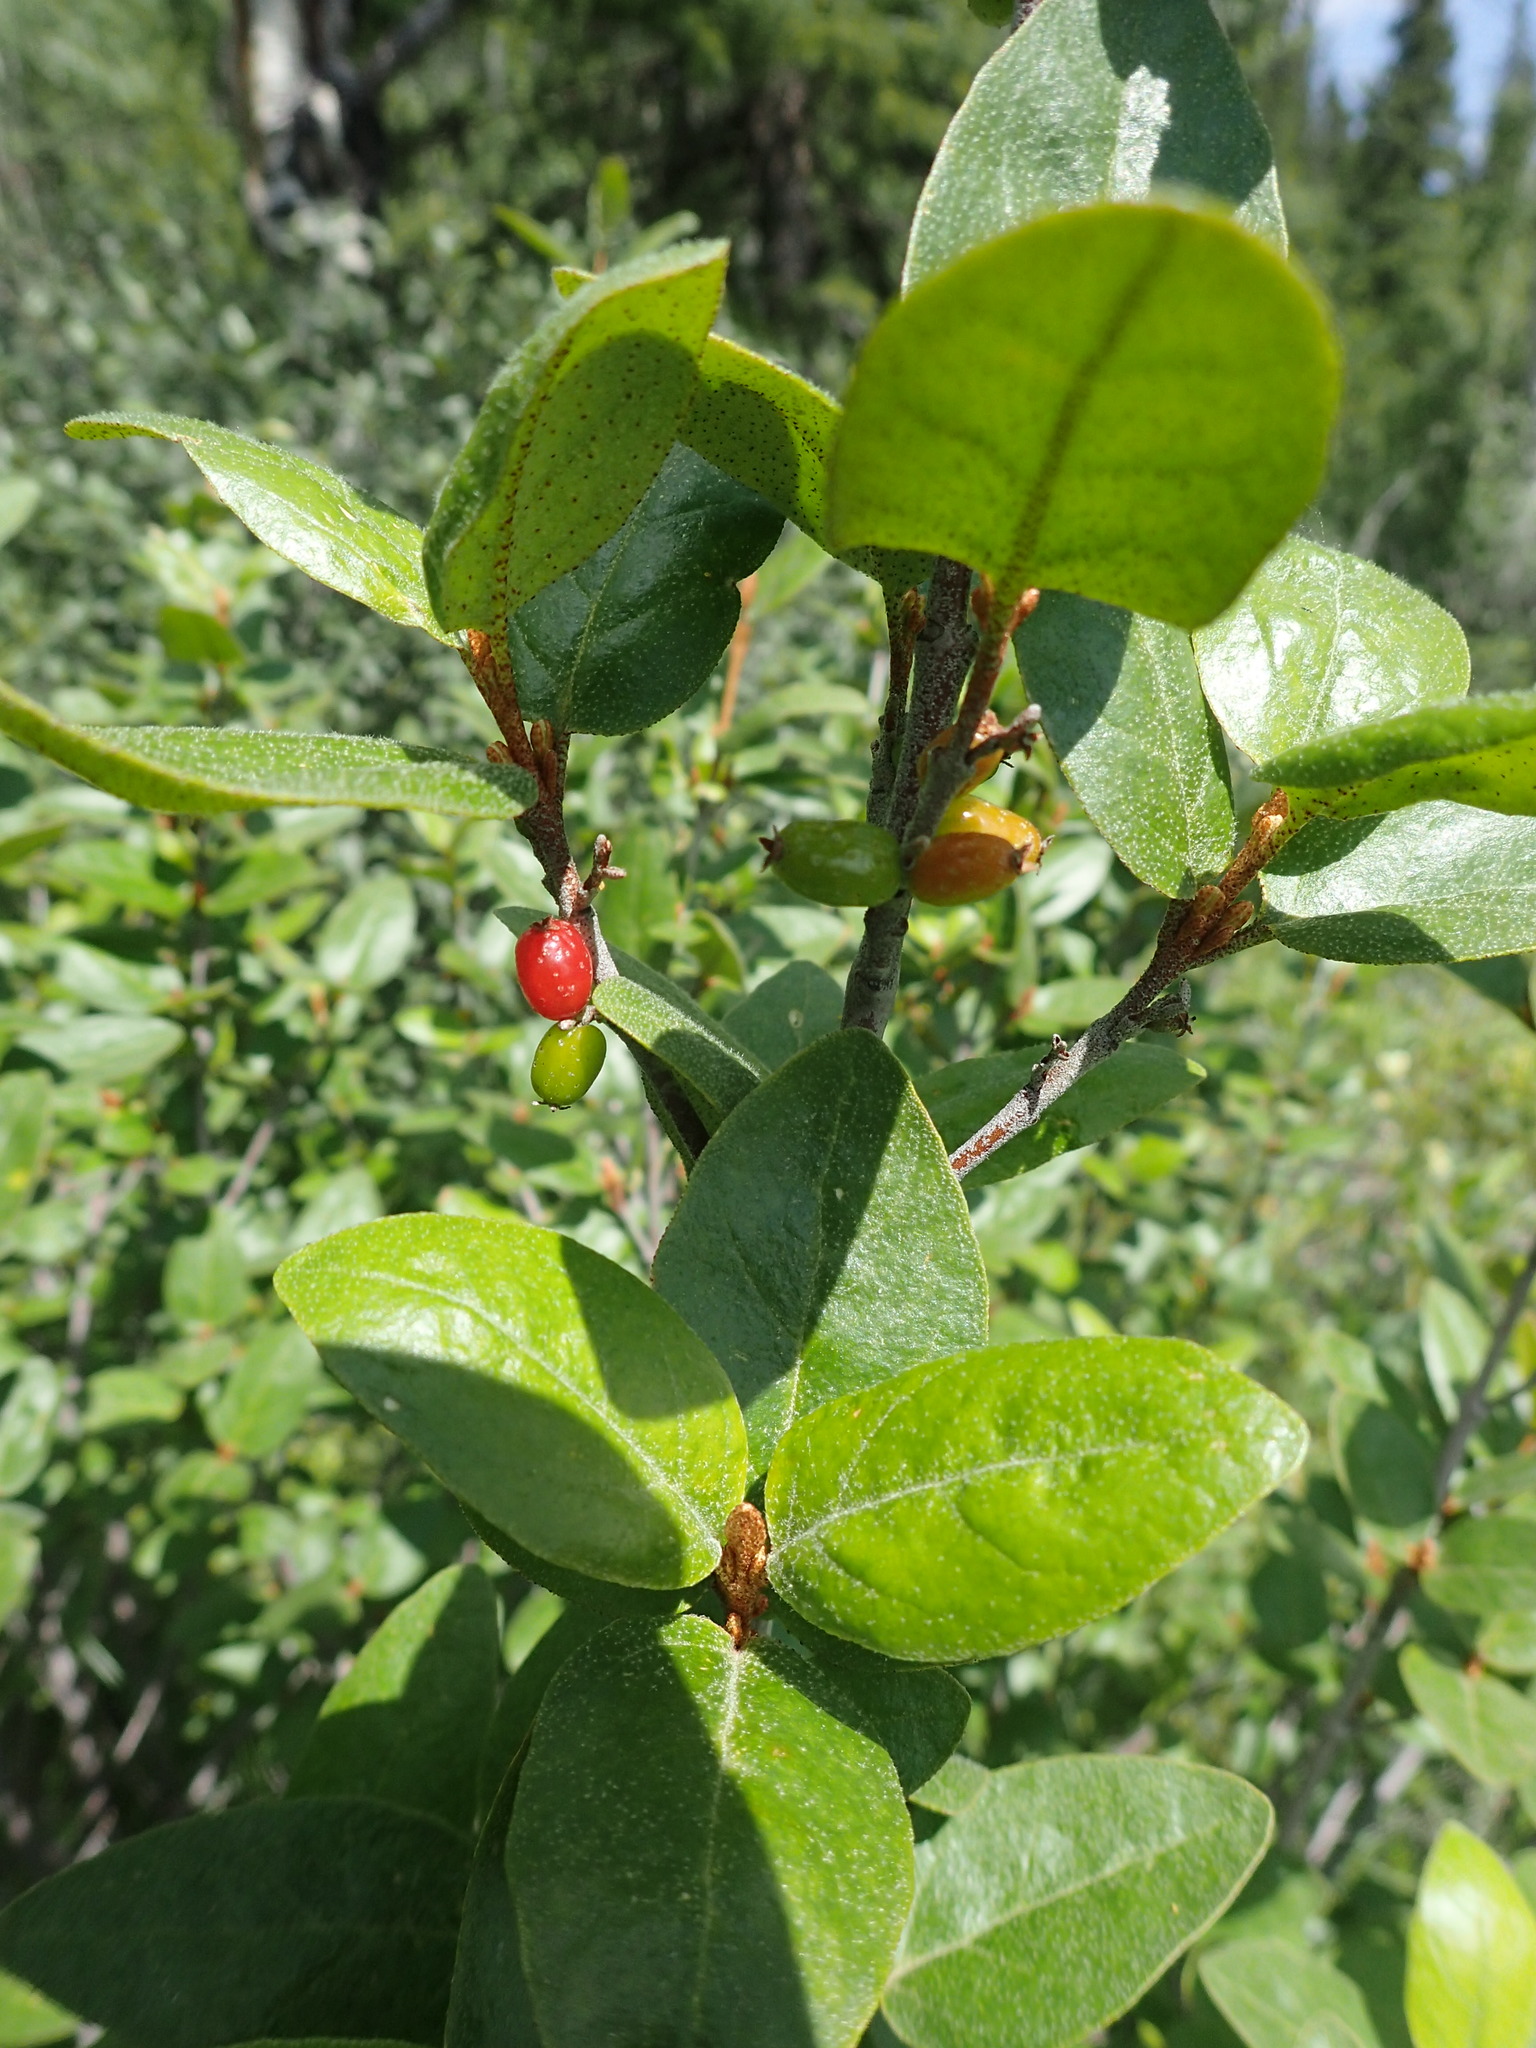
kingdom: Plantae
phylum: Tracheophyta
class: Magnoliopsida
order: Rosales
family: Elaeagnaceae
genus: Shepherdia
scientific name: Shepherdia canadensis
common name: Soapberry
